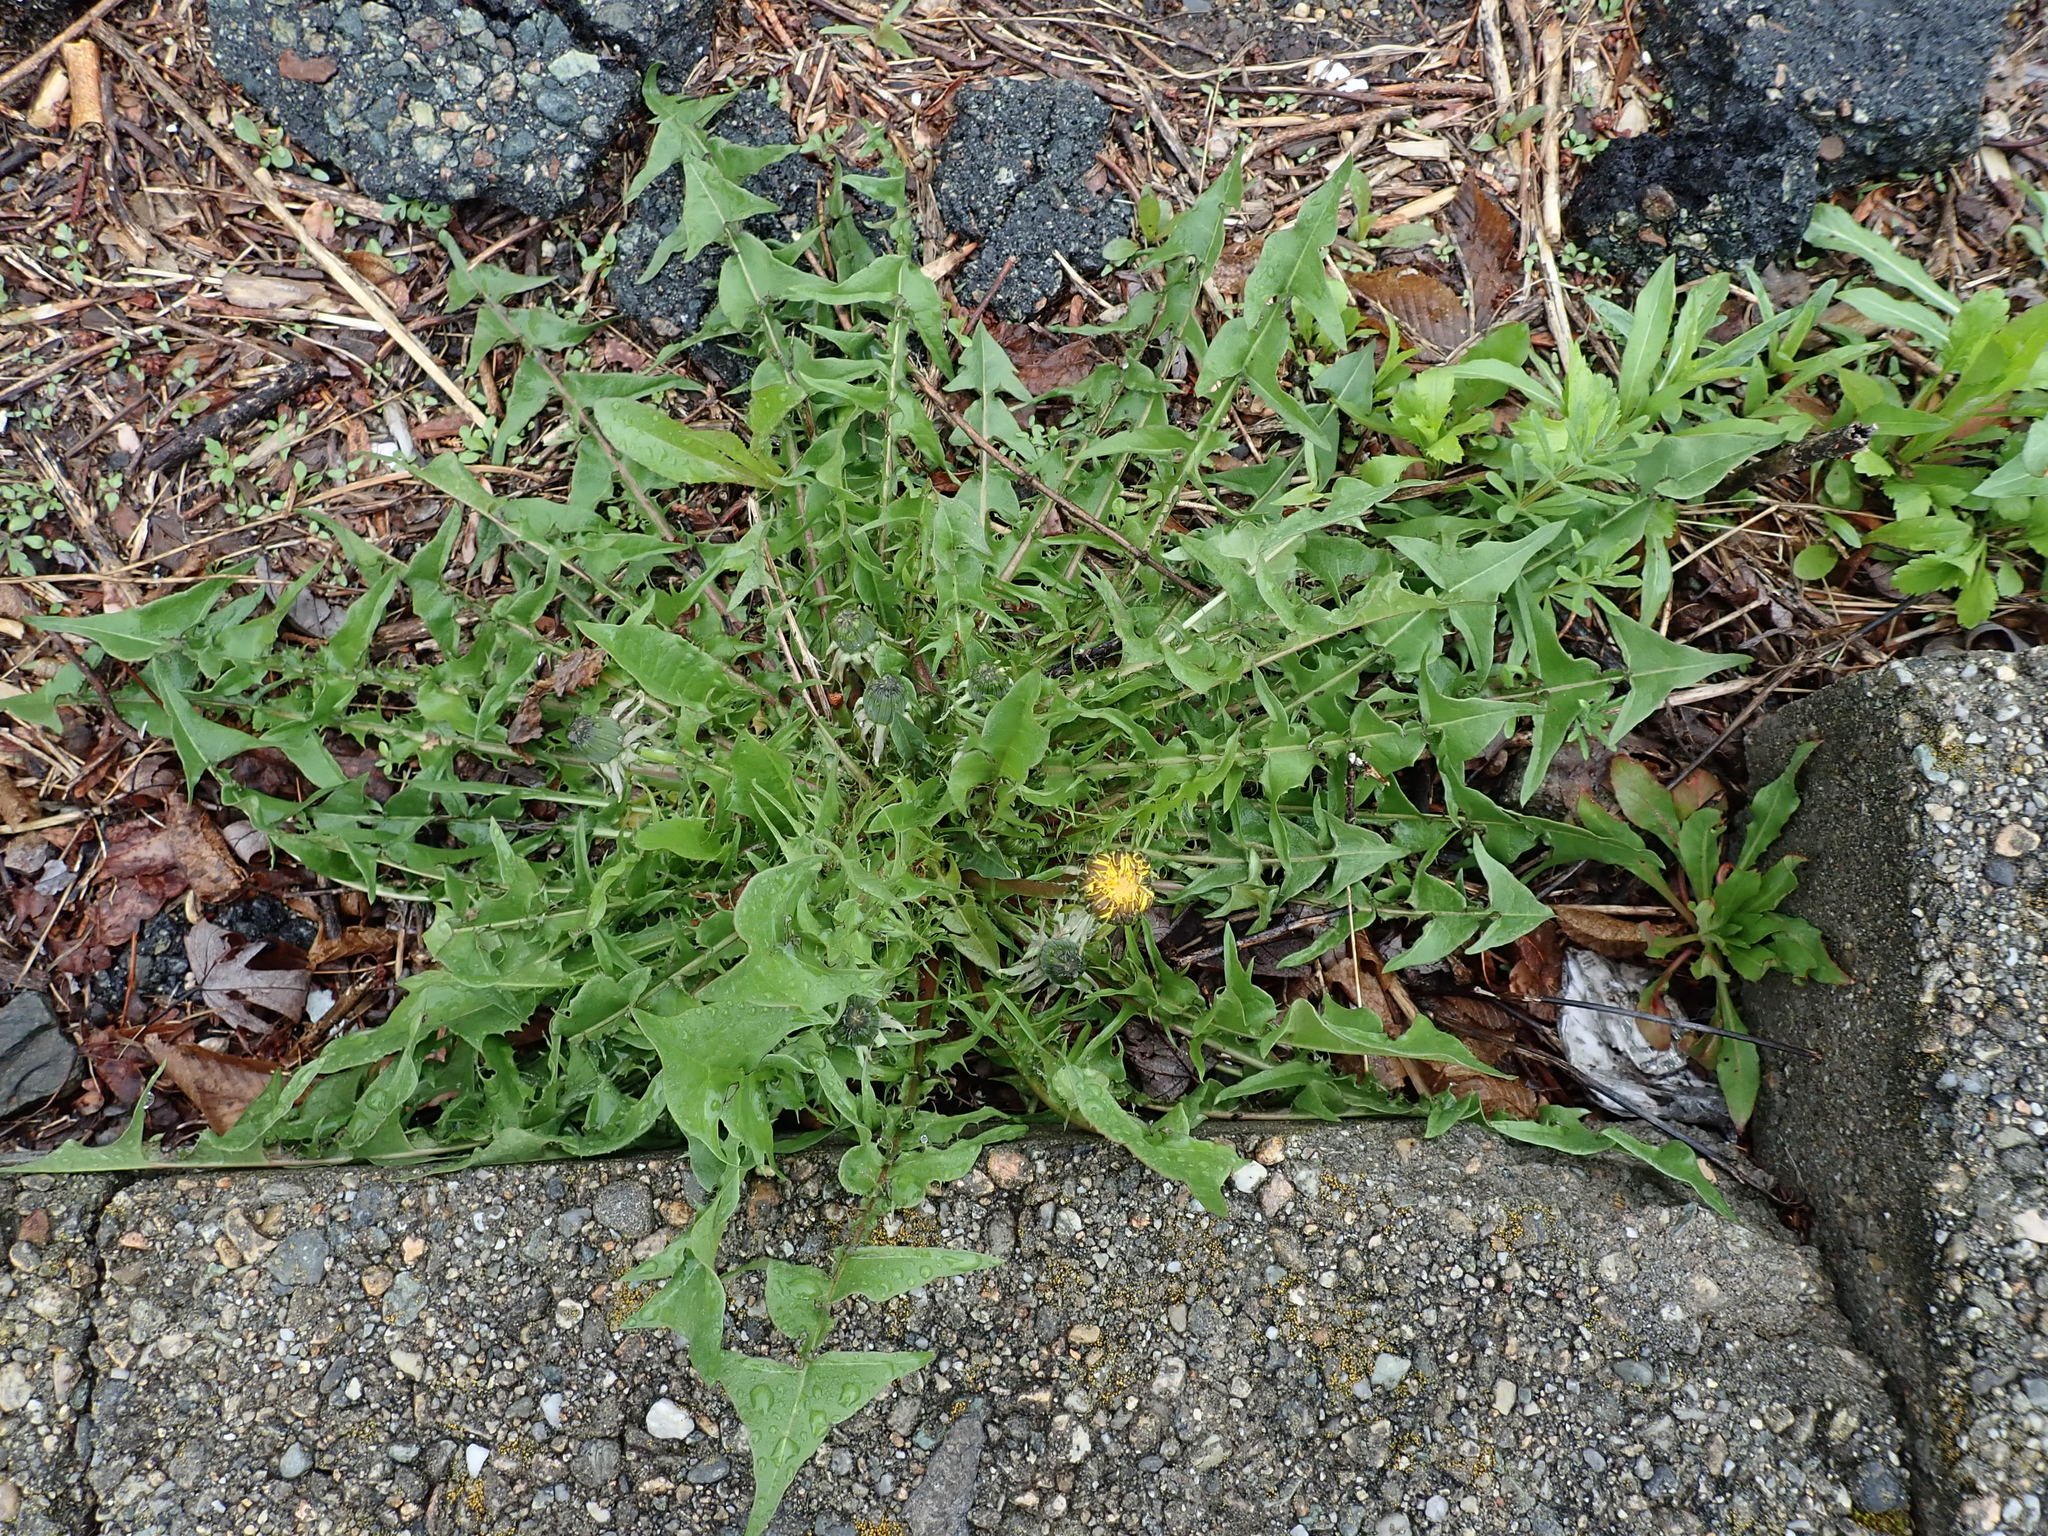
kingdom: Plantae
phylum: Tracheophyta
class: Magnoliopsida
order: Asterales
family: Asteraceae
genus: Taraxacum
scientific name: Taraxacum officinale
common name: Common dandelion
